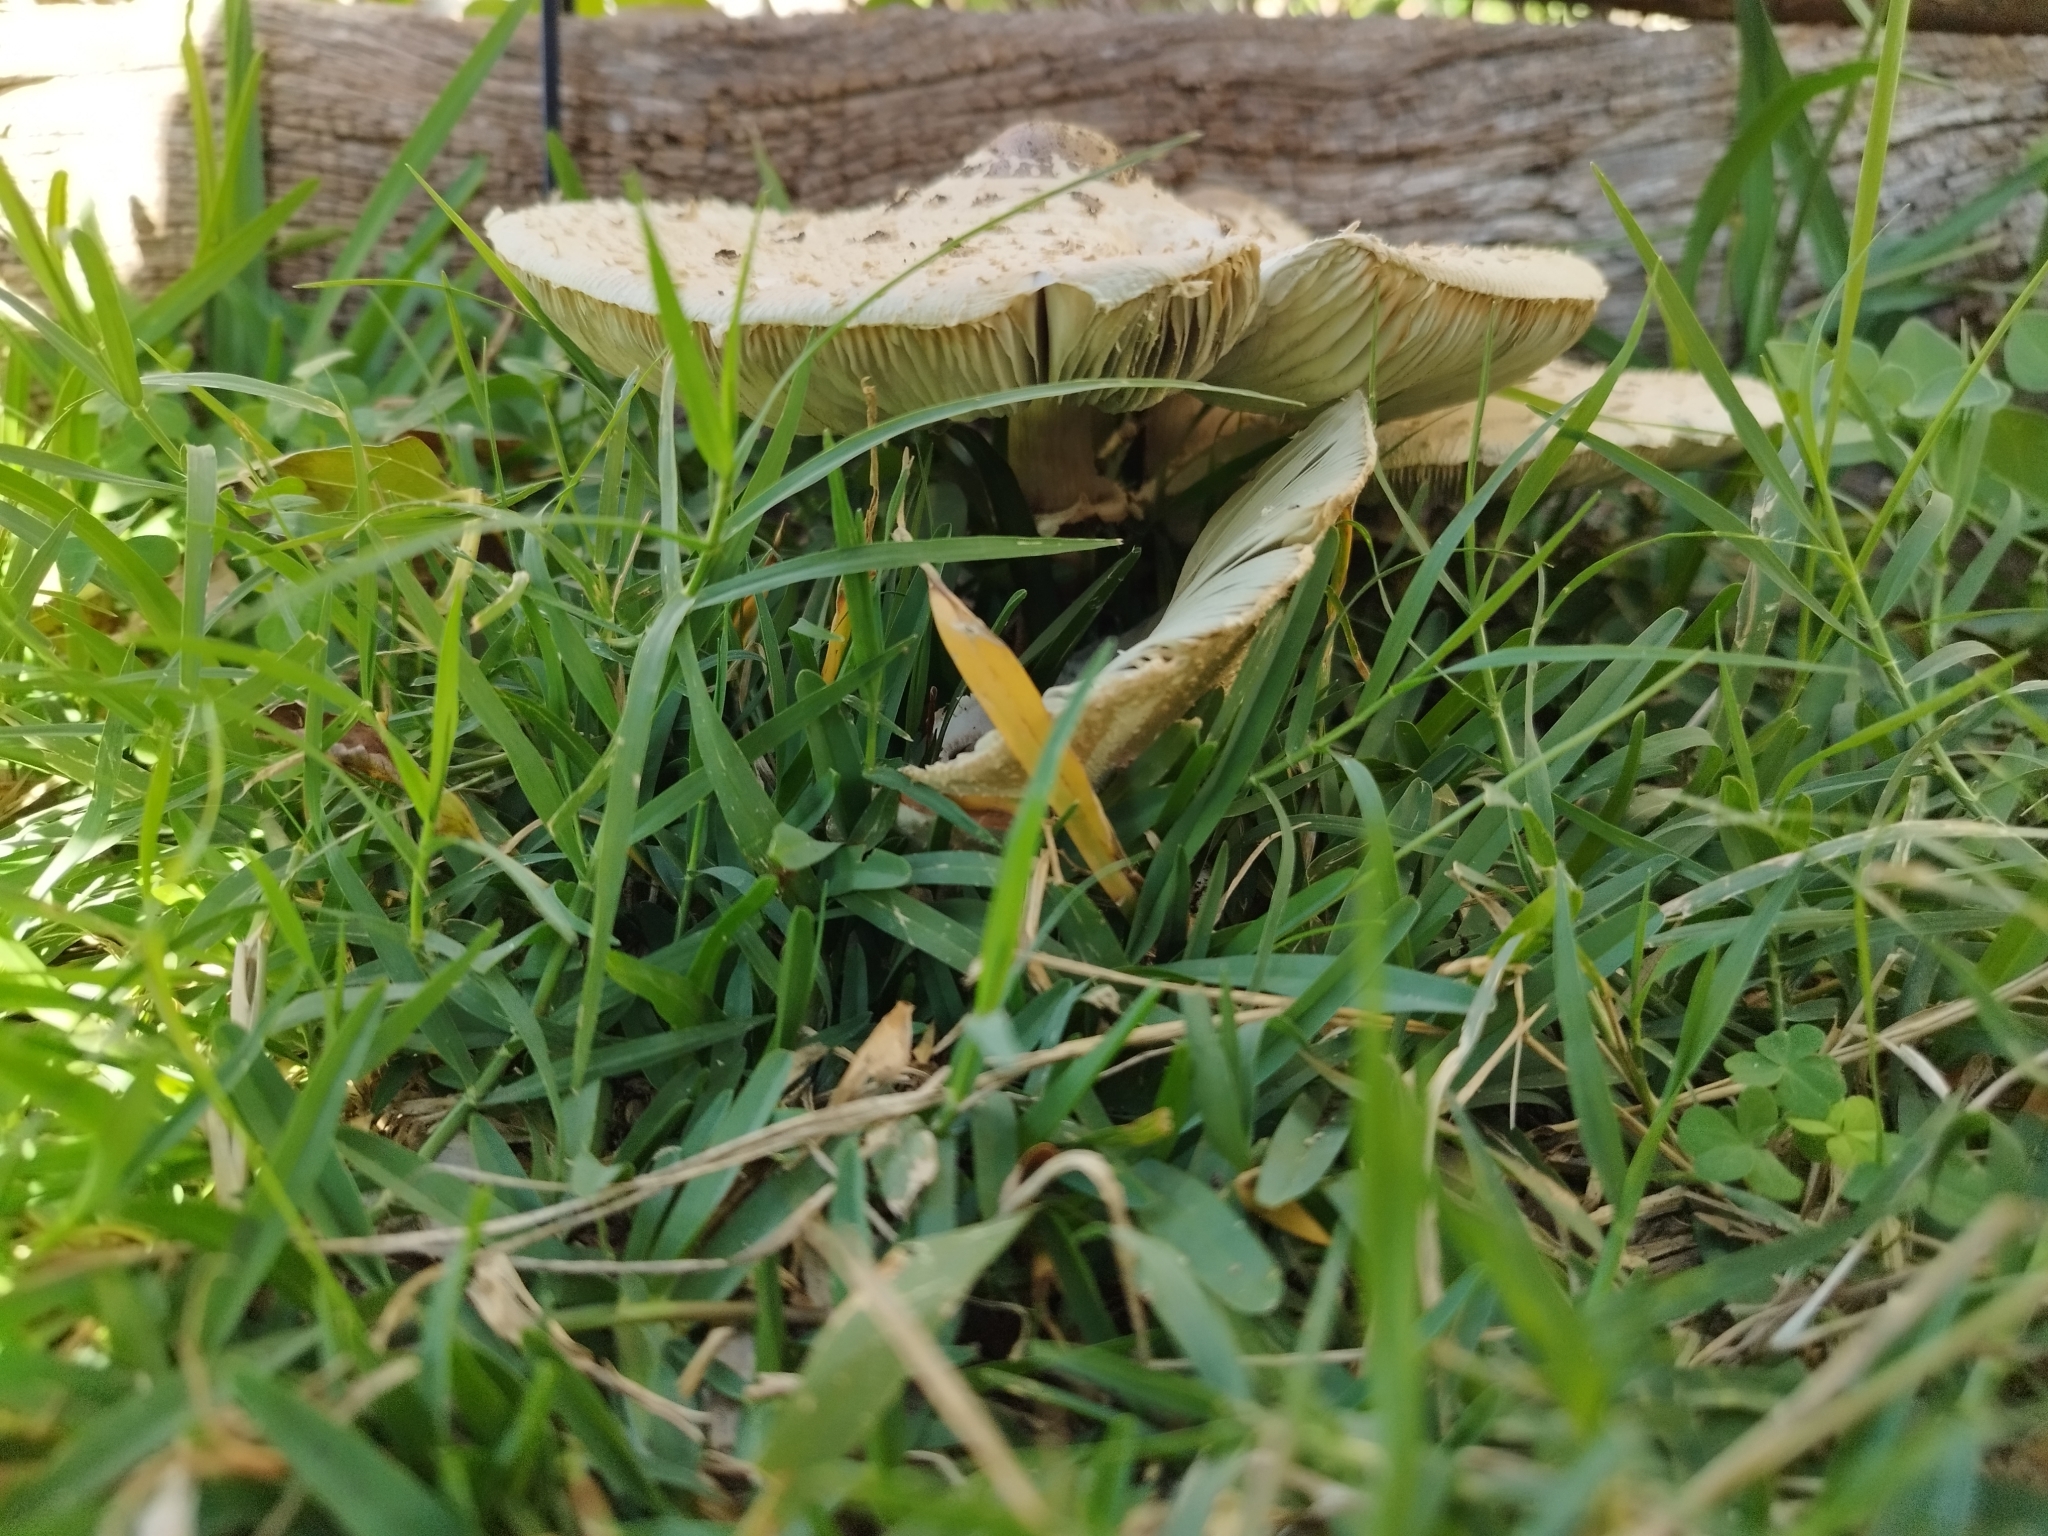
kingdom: Fungi
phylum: Basidiomycota
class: Agaricomycetes
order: Agaricales
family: Agaricaceae
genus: Chlorophyllum
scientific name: Chlorophyllum molybdites
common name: False parasol
